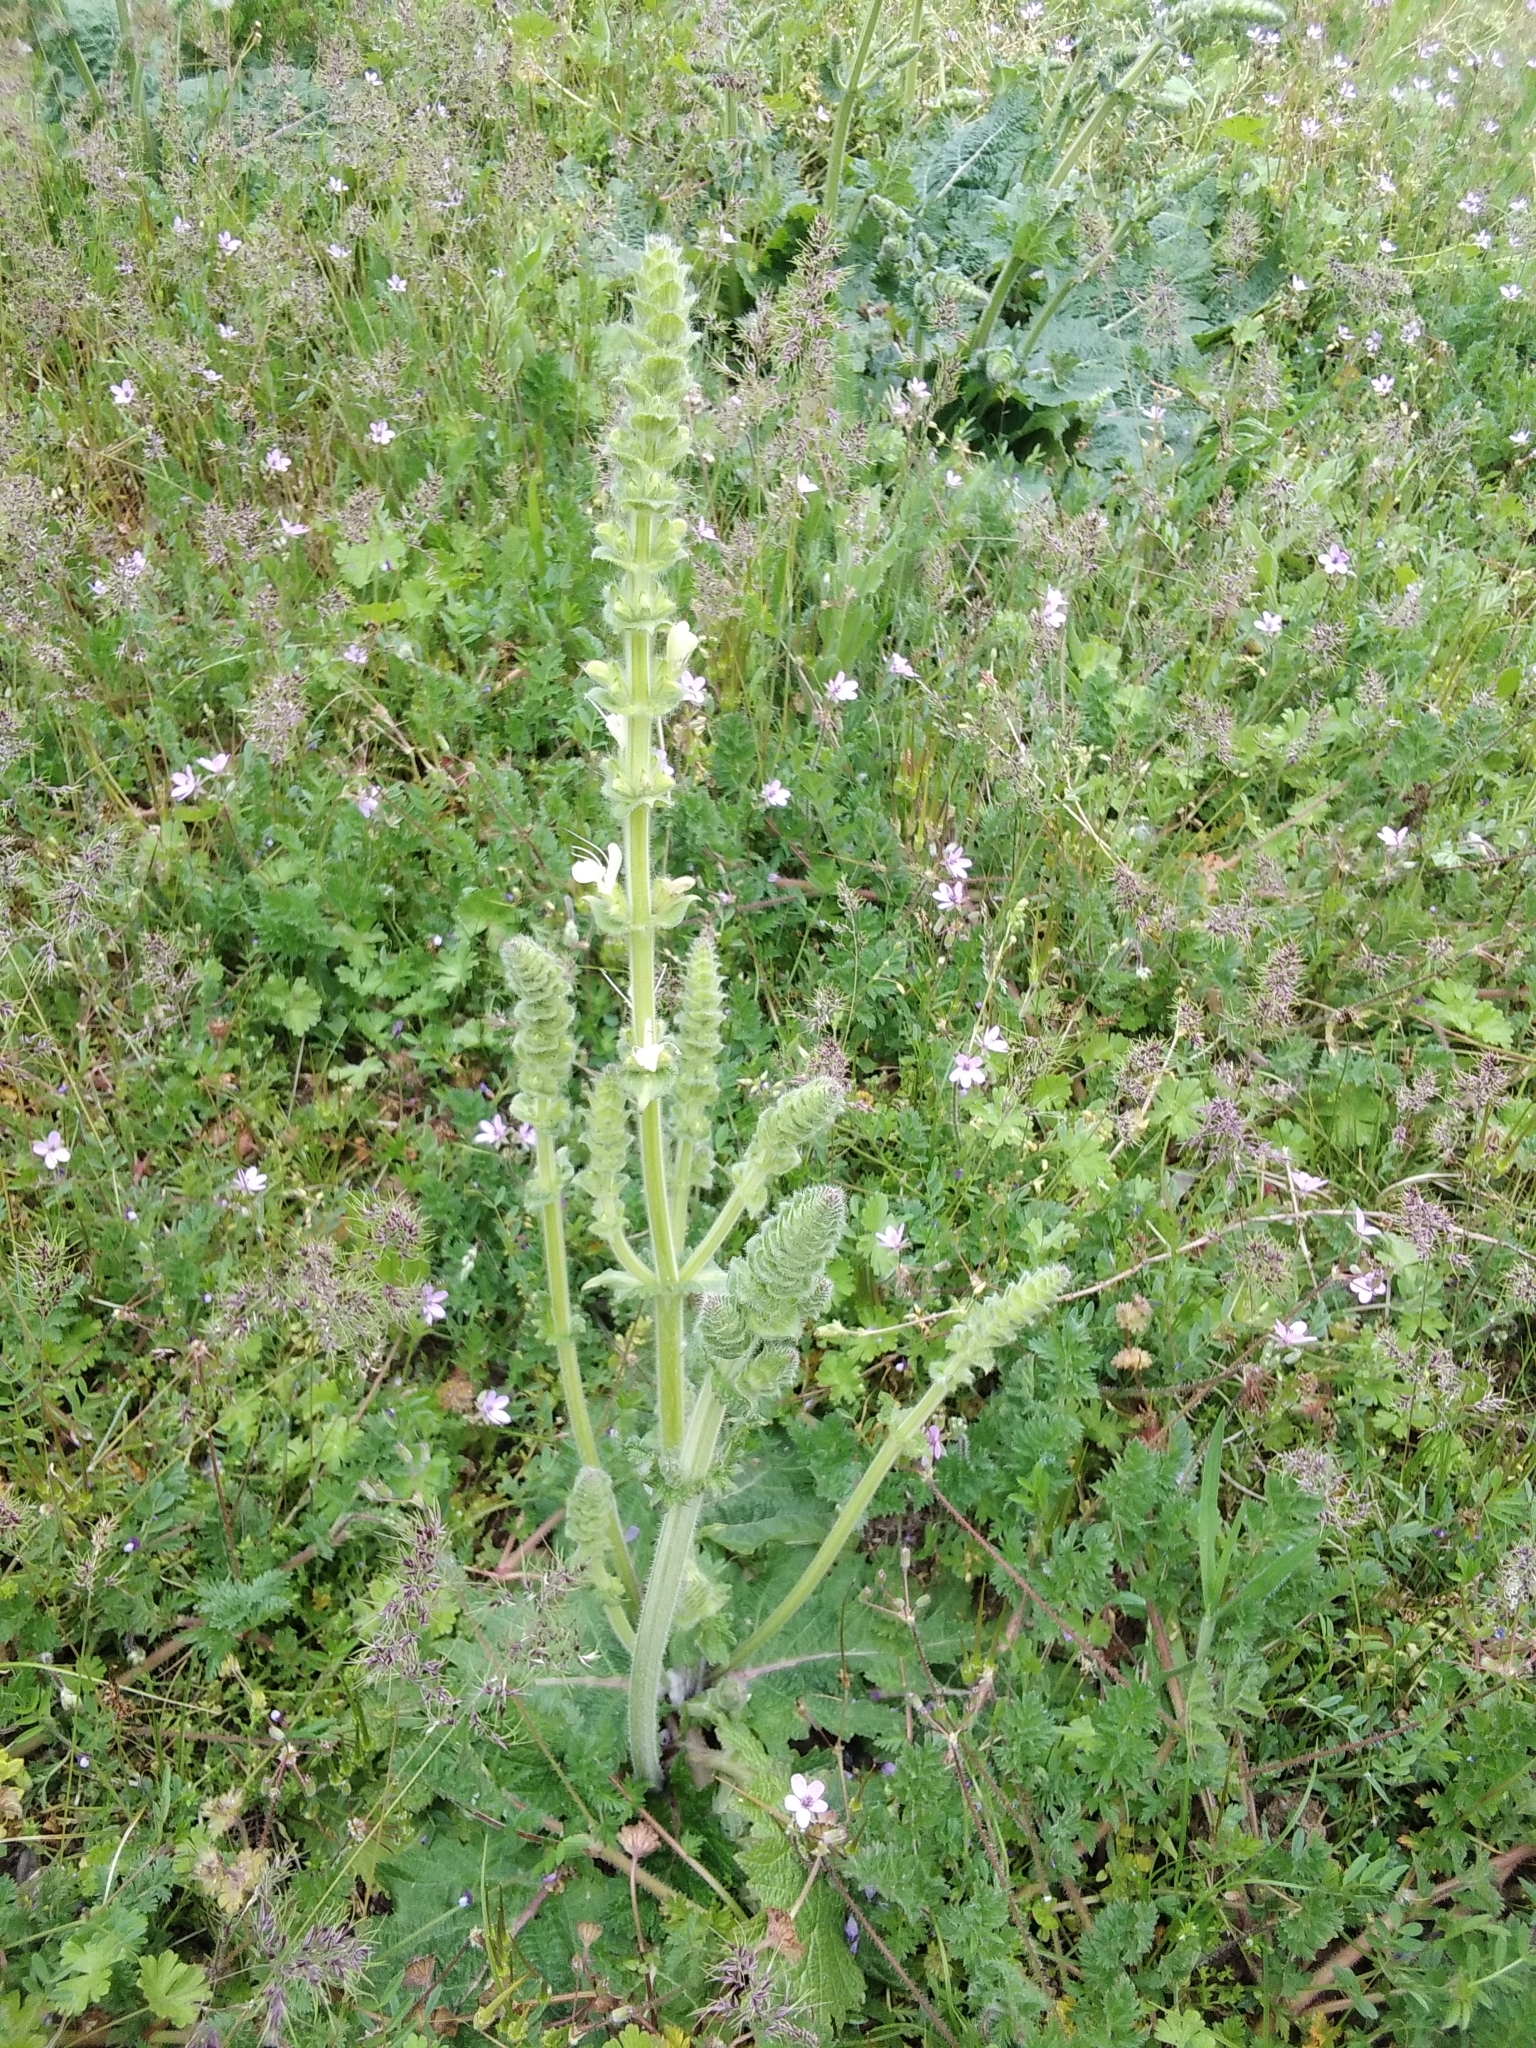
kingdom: Plantae
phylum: Tracheophyta
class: Magnoliopsida
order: Lamiales
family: Lamiaceae
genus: Salvia
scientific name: Salvia austriaca
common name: Austrian sage
